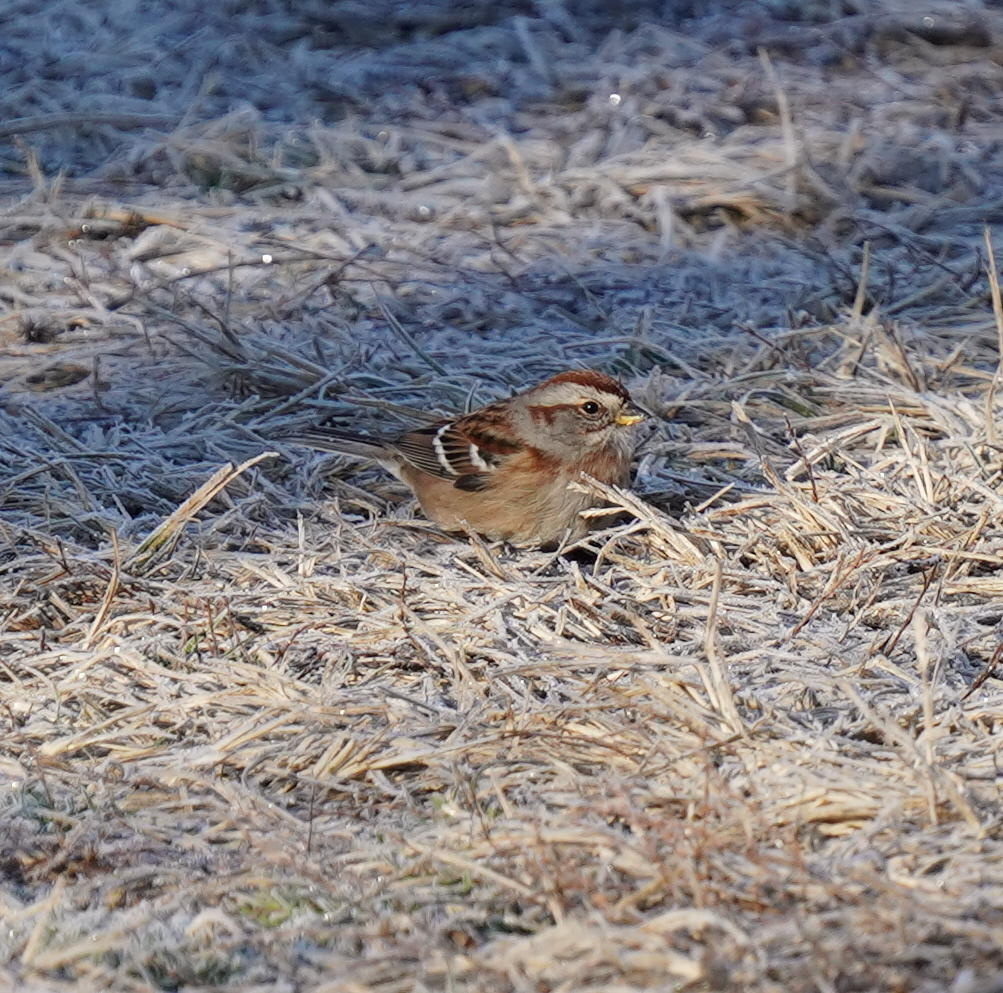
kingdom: Animalia
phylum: Chordata
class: Aves
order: Passeriformes
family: Passerellidae
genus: Zonotrichia
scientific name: Zonotrichia leucophrys
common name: White-crowned sparrow
